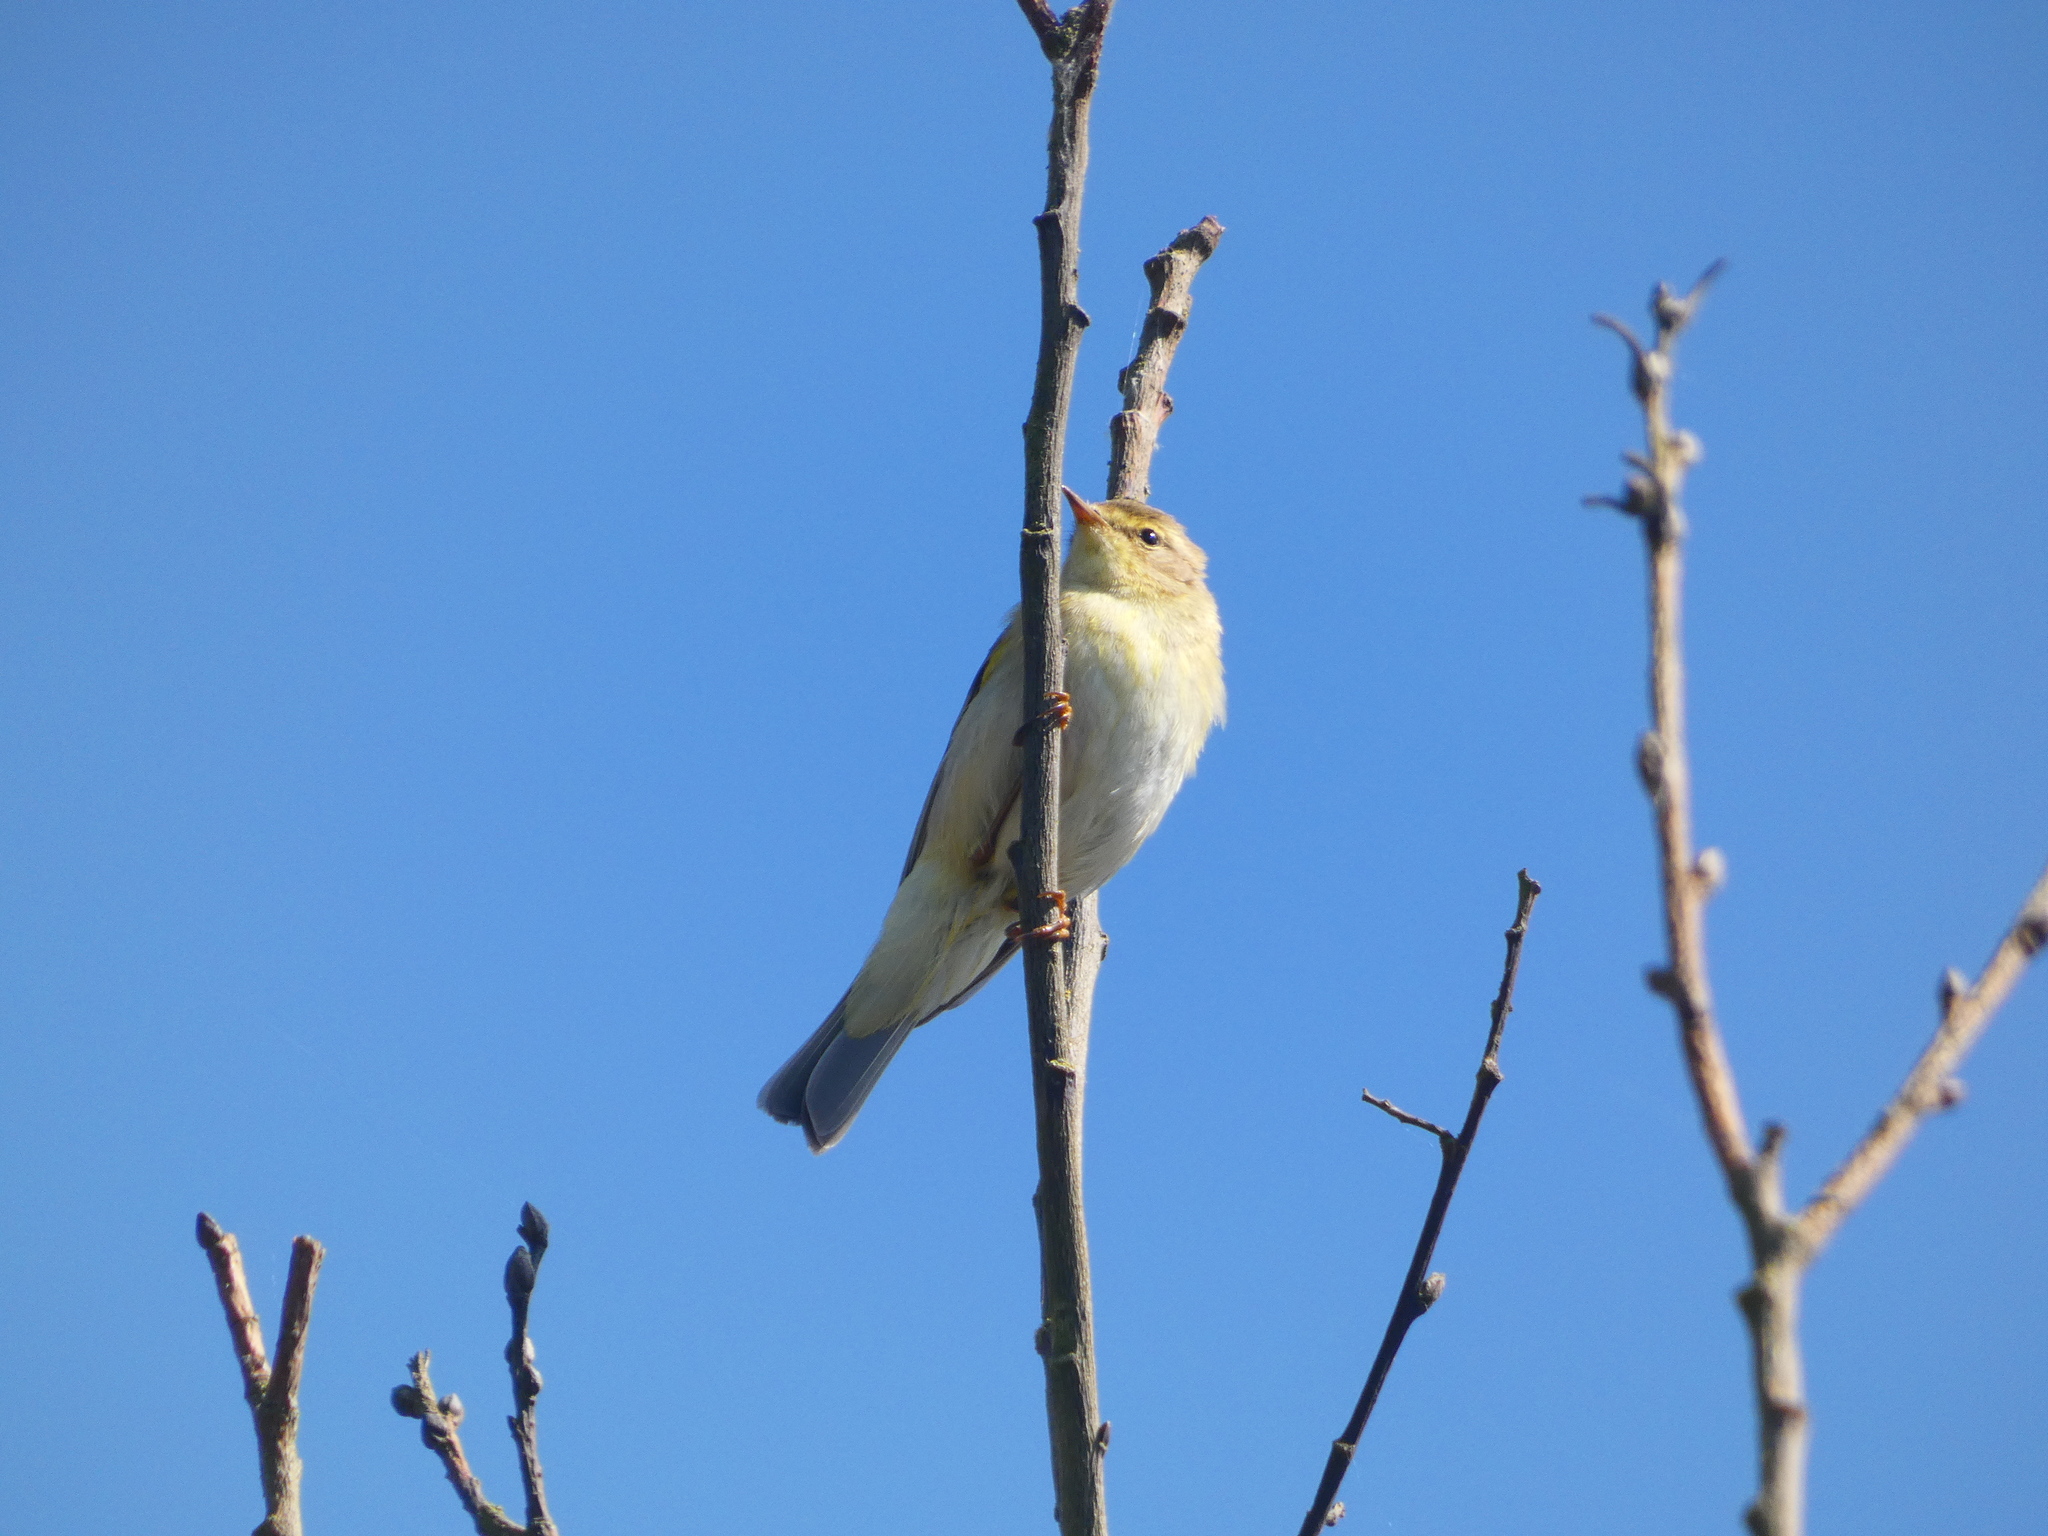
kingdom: Animalia
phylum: Chordata
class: Aves
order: Passeriformes
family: Phylloscopidae
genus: Phylloscopus
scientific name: Phylloscopus trochilus
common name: Willow warbler
